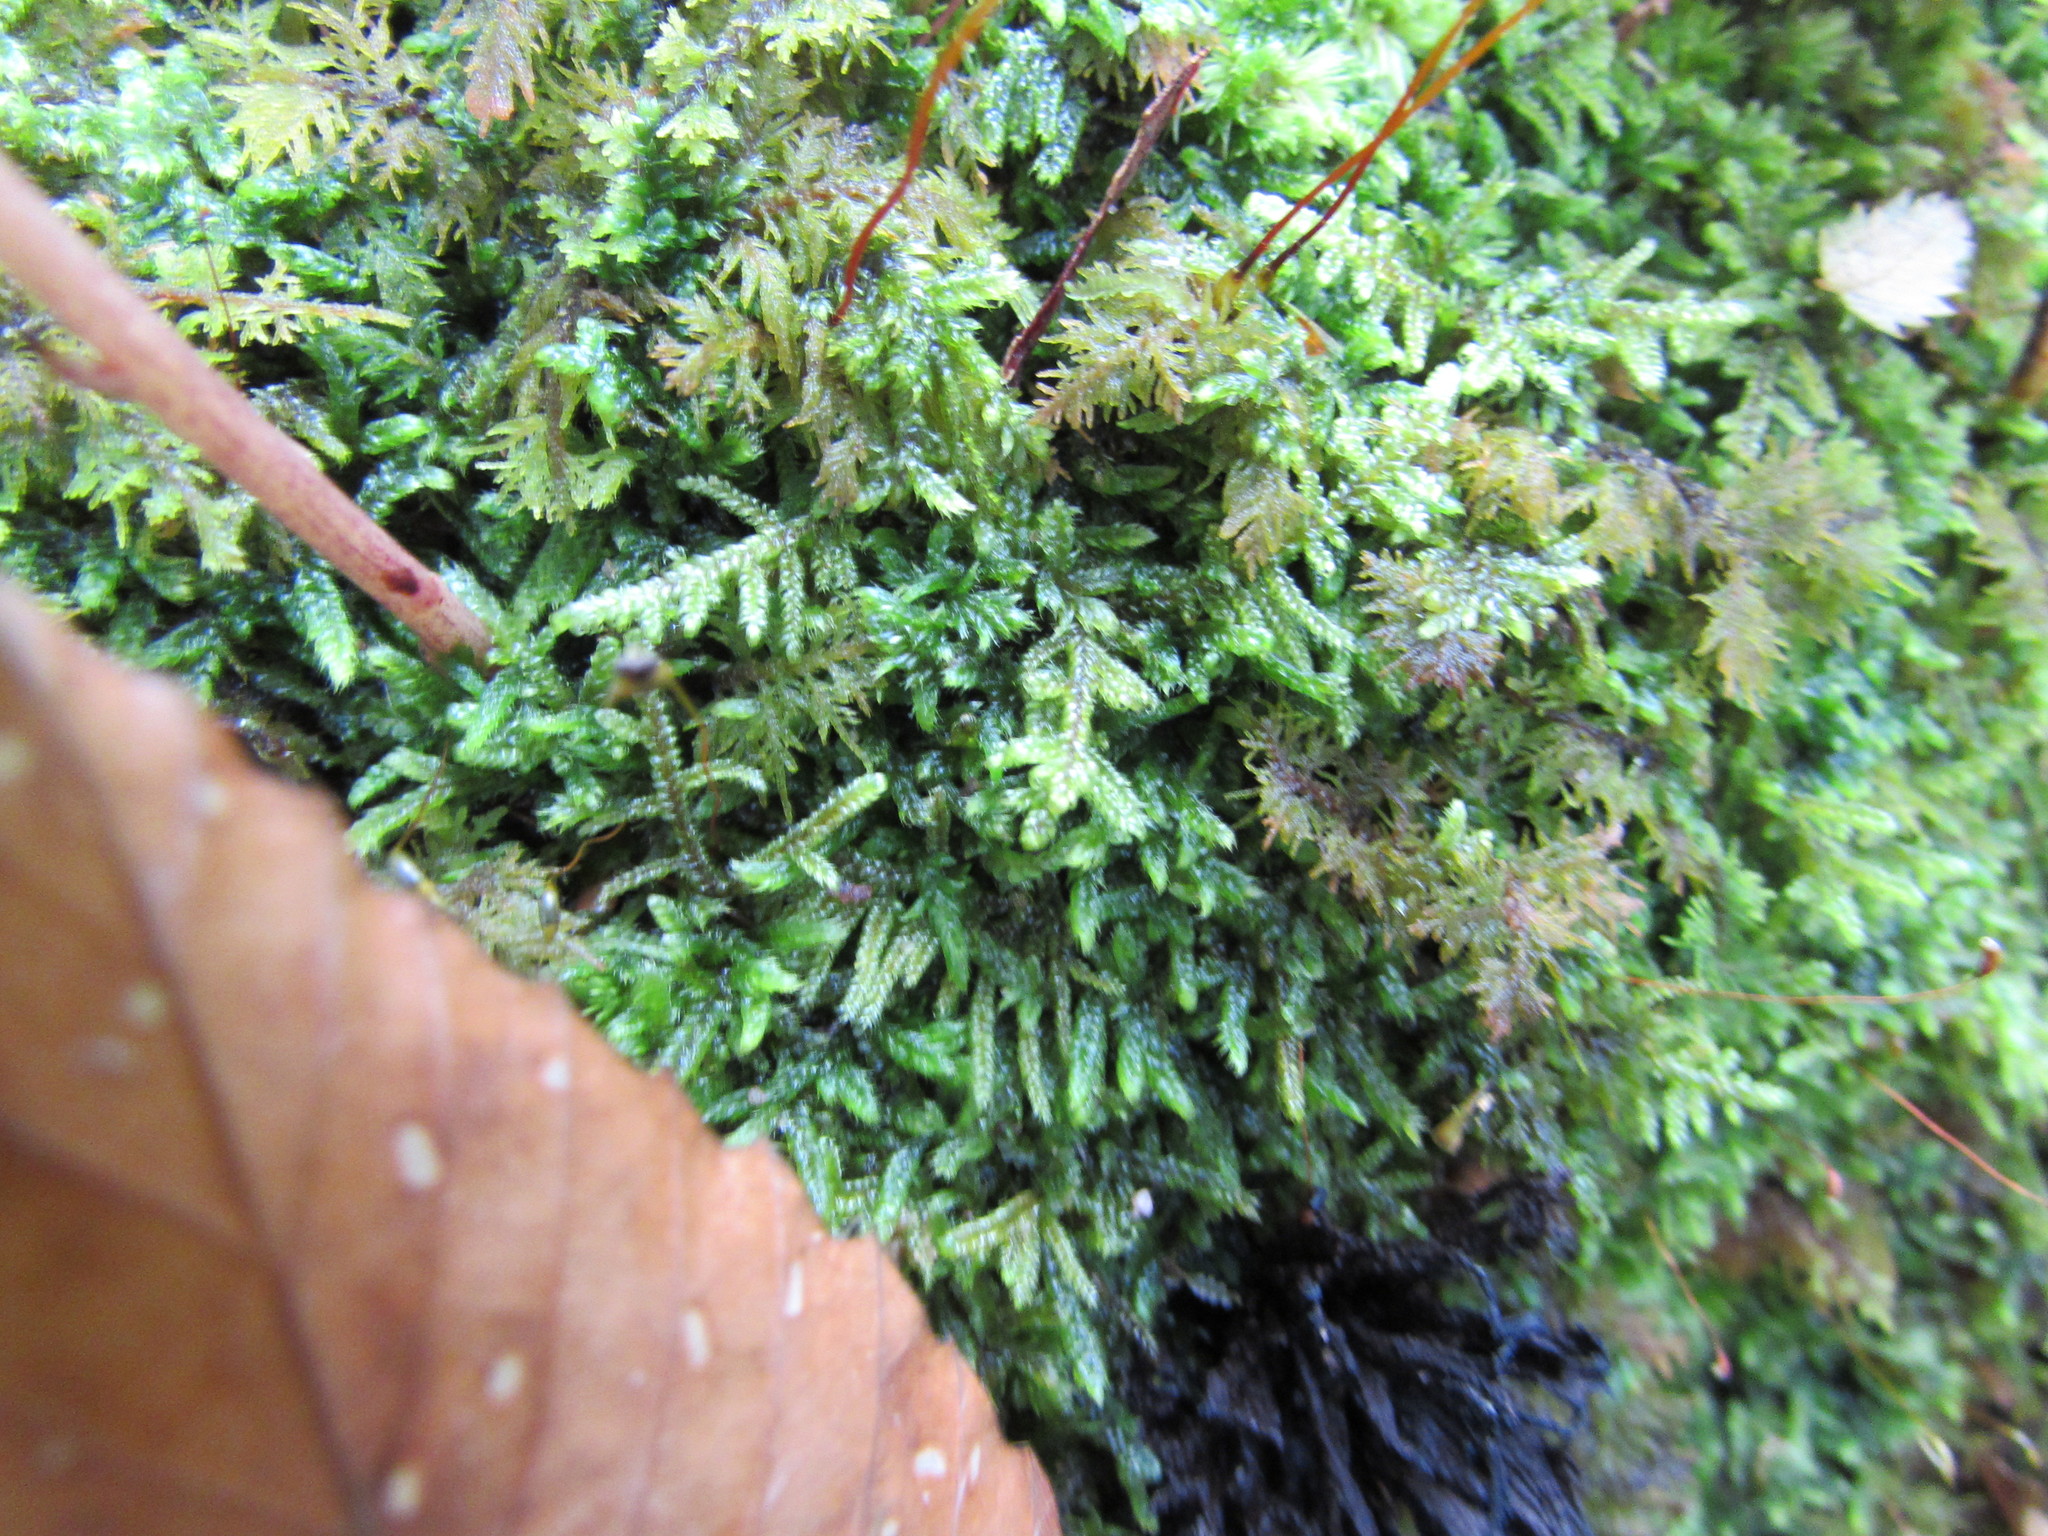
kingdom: Plantae
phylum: Bryophyta
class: Bryopsida
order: Hypnales
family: Callicladiaceae
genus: Callicladium
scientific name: Callicladium imponens
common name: Brocade moss
